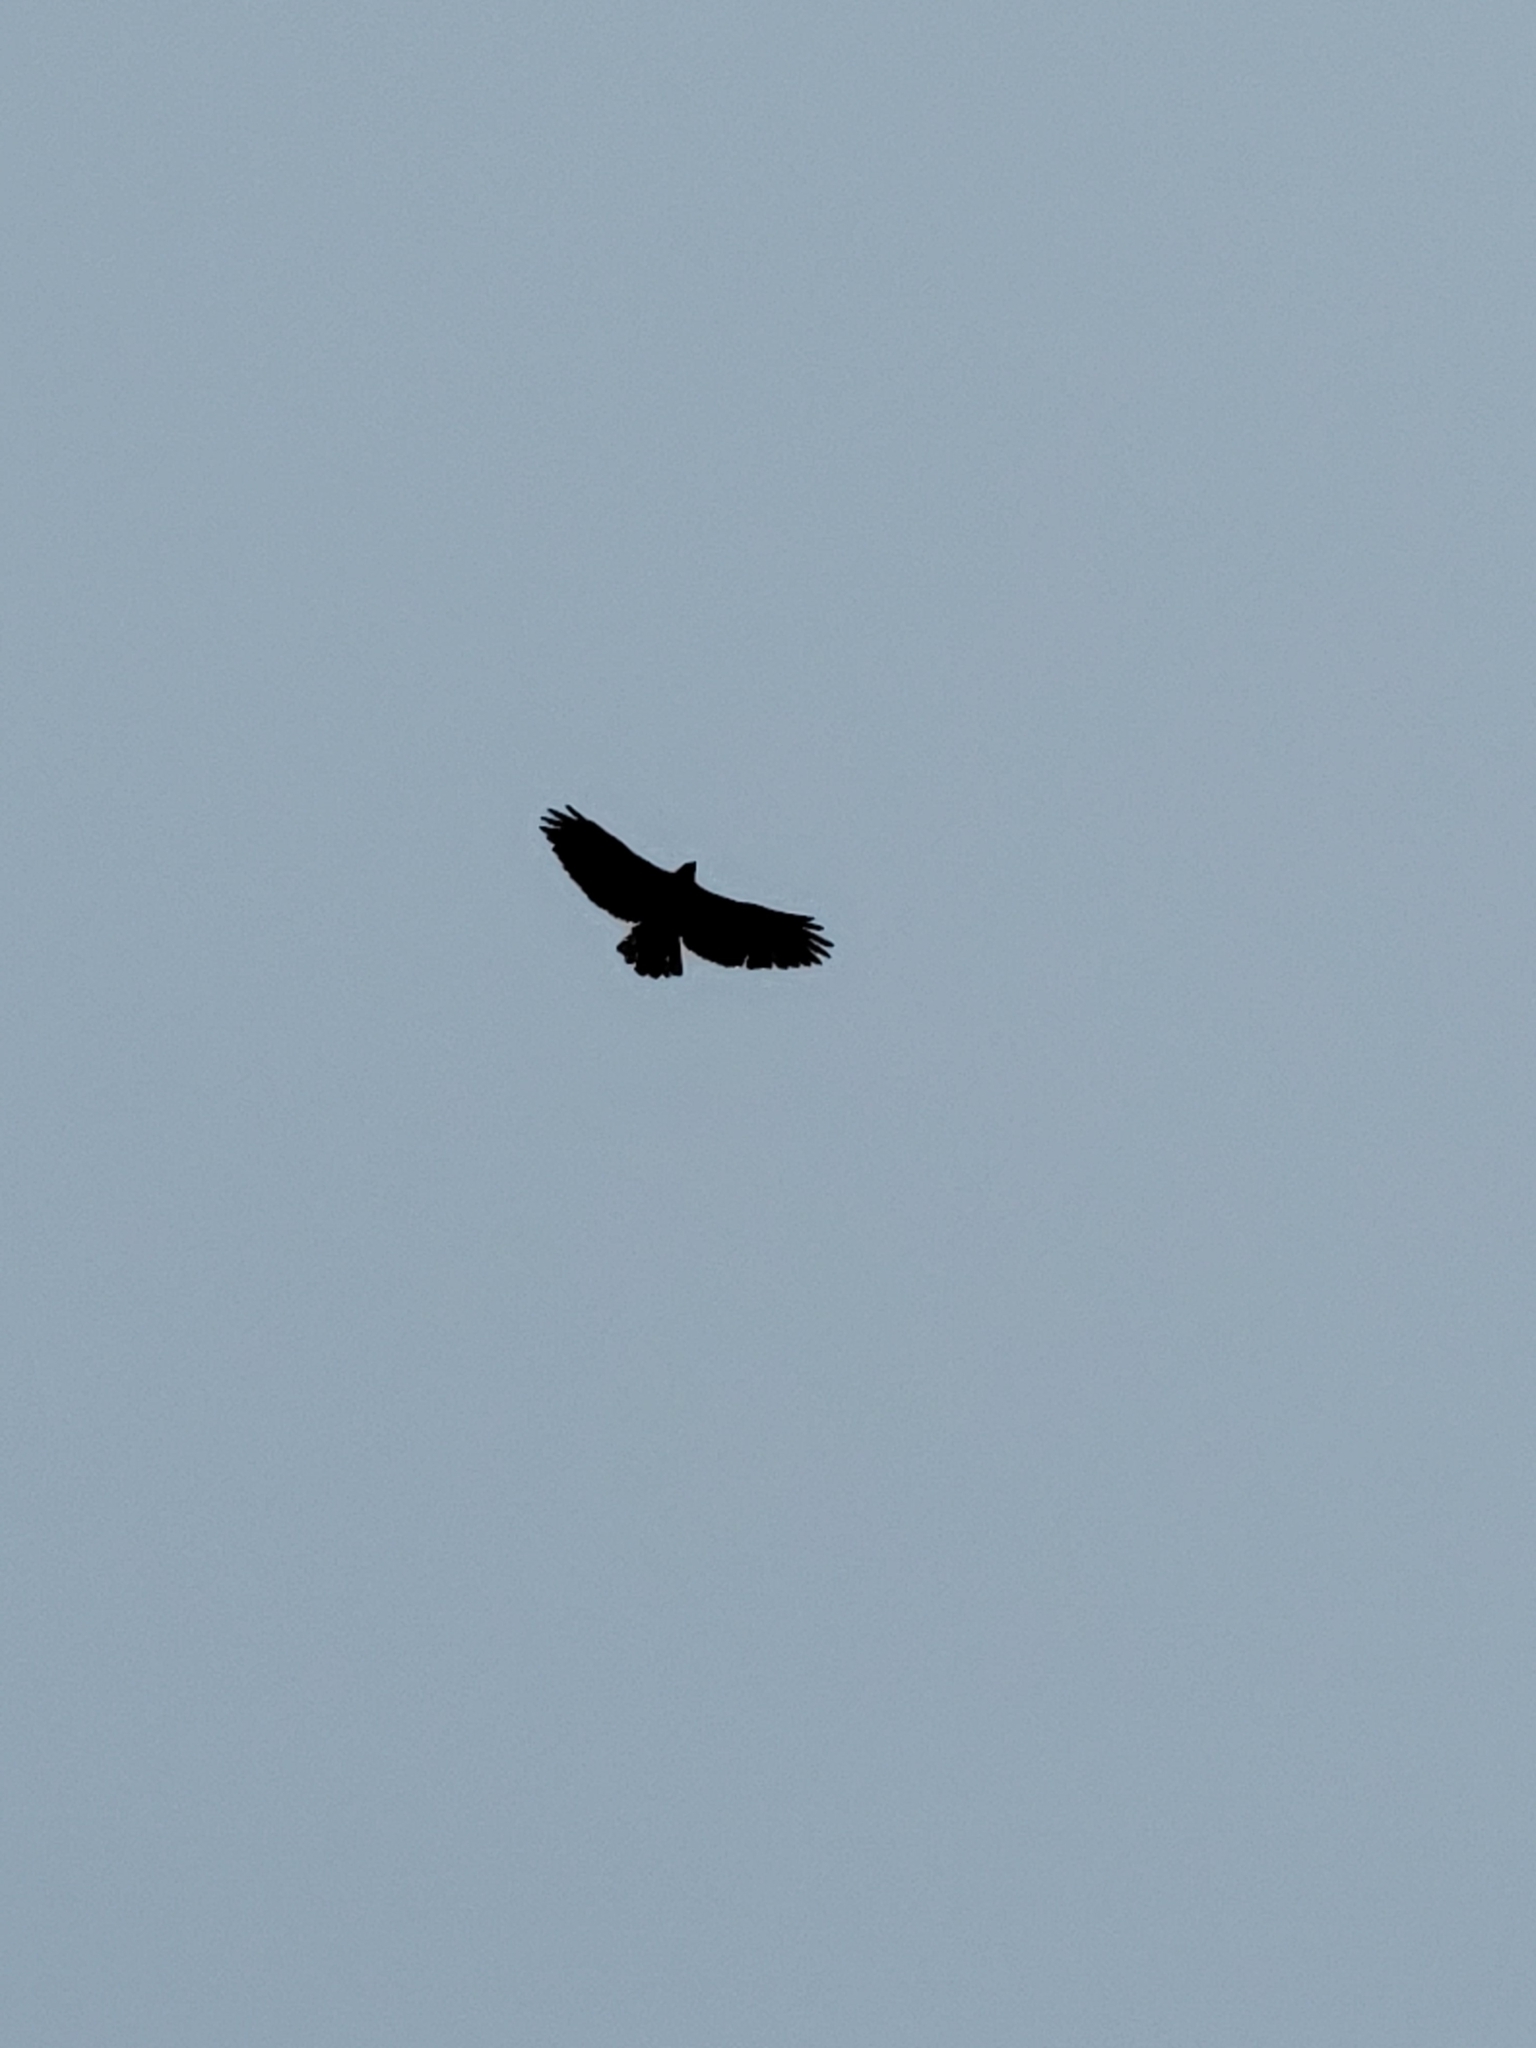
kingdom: Animalia
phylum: Chordata
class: Aves
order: Accipitriformes
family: Accipitridae
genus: Buteo
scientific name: Buteo jamaicensis
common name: Red-tailed hawk
